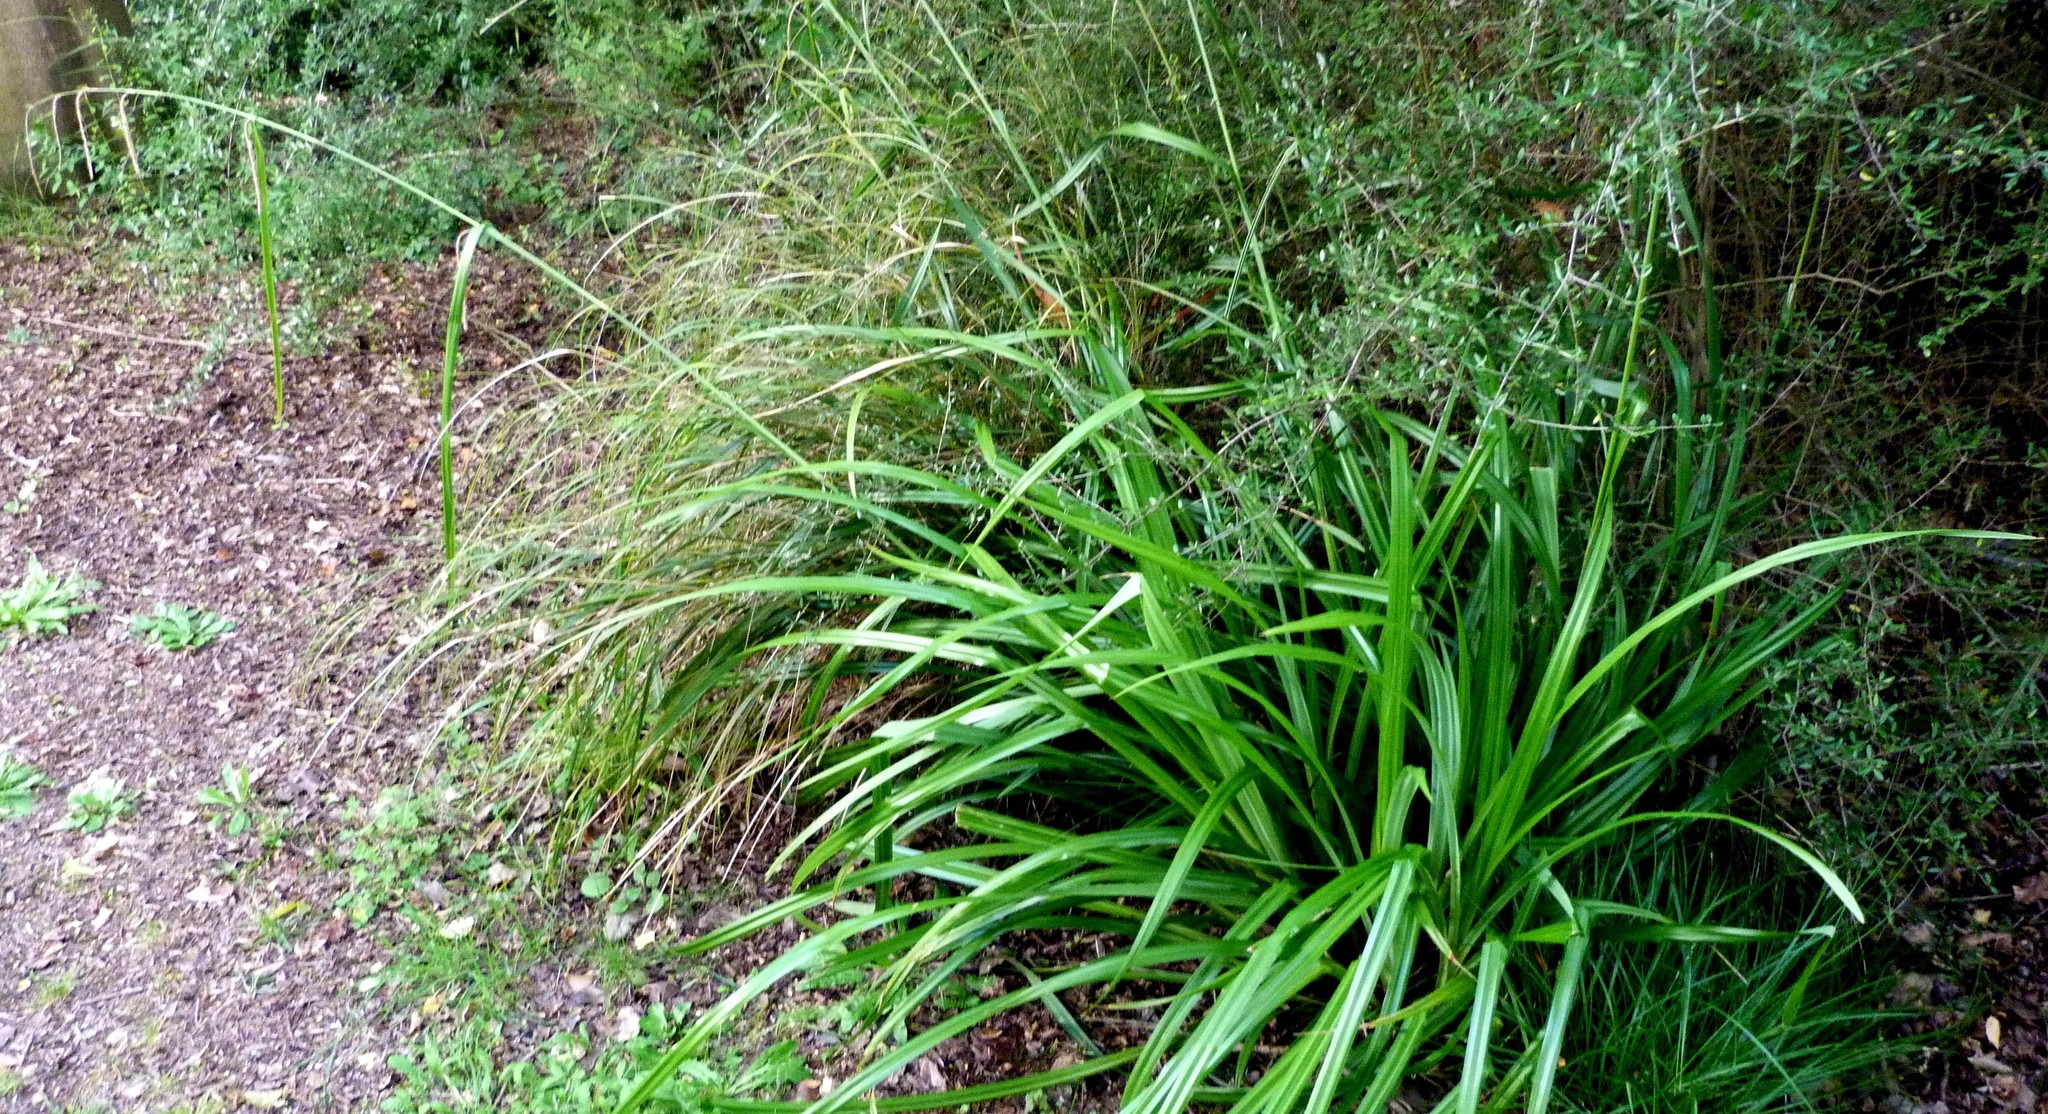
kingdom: Plantae
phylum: Tracheophyta
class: Liliopsida
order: Poales
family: Cyperaceae
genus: Carex
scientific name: Carex pendula
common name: Pendulous sedge
